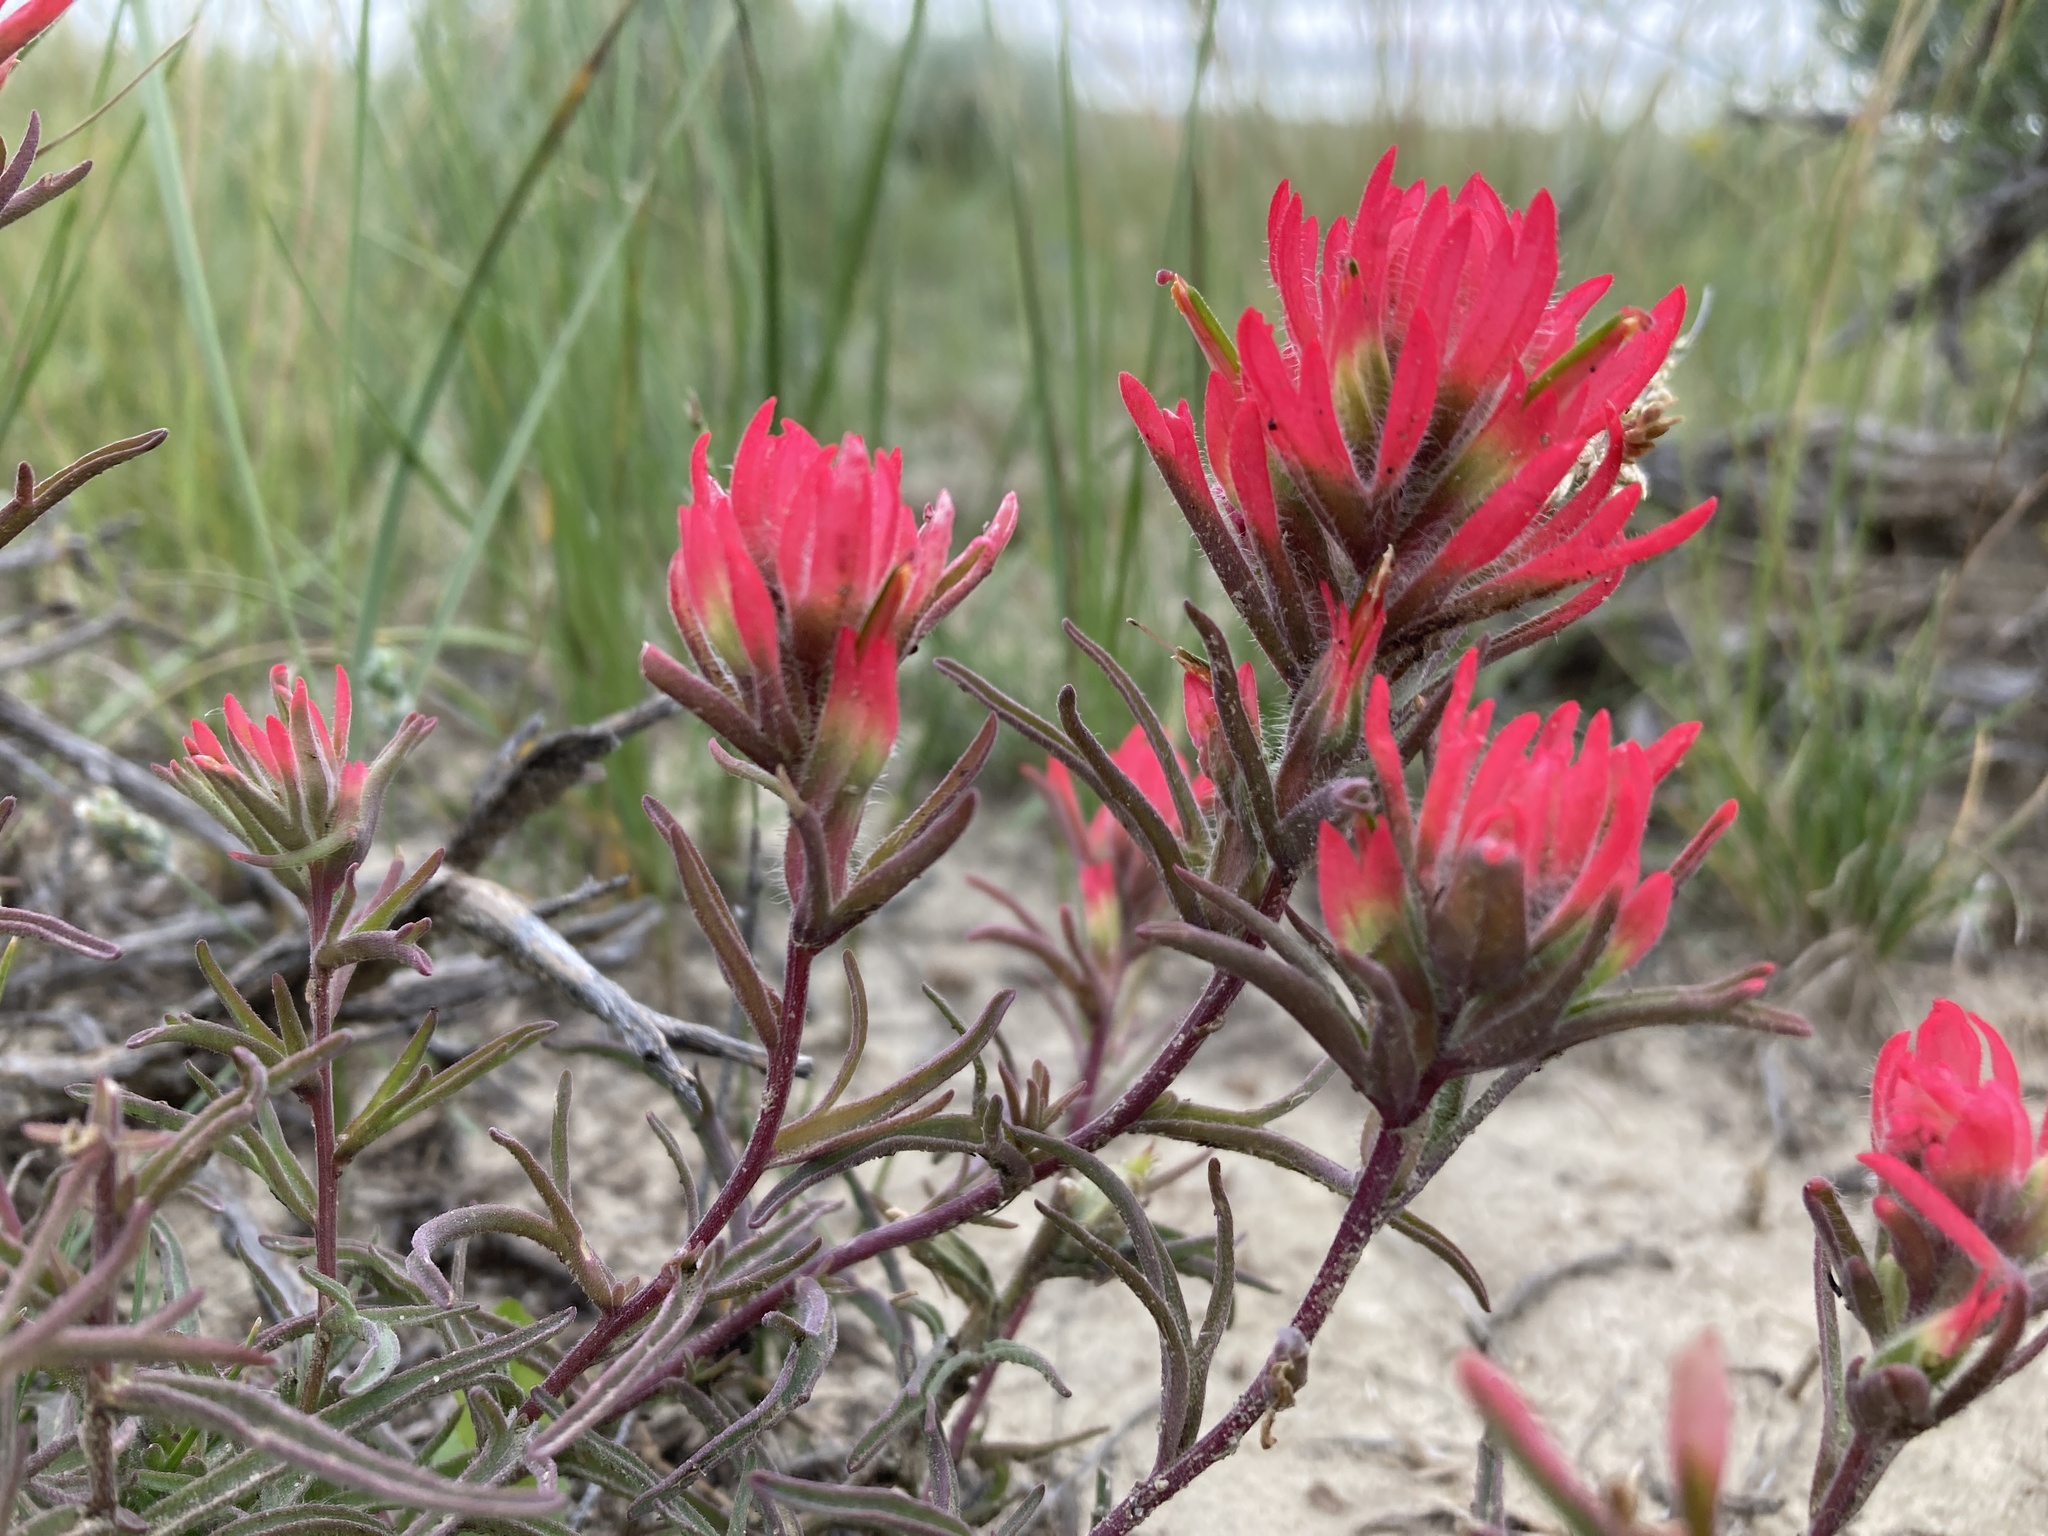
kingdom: Plantae
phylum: Tracheophyta
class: Magnoliopsida
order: Lamiales
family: Orobanchaceae
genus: Castilleja
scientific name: Castilleja angustifolia
